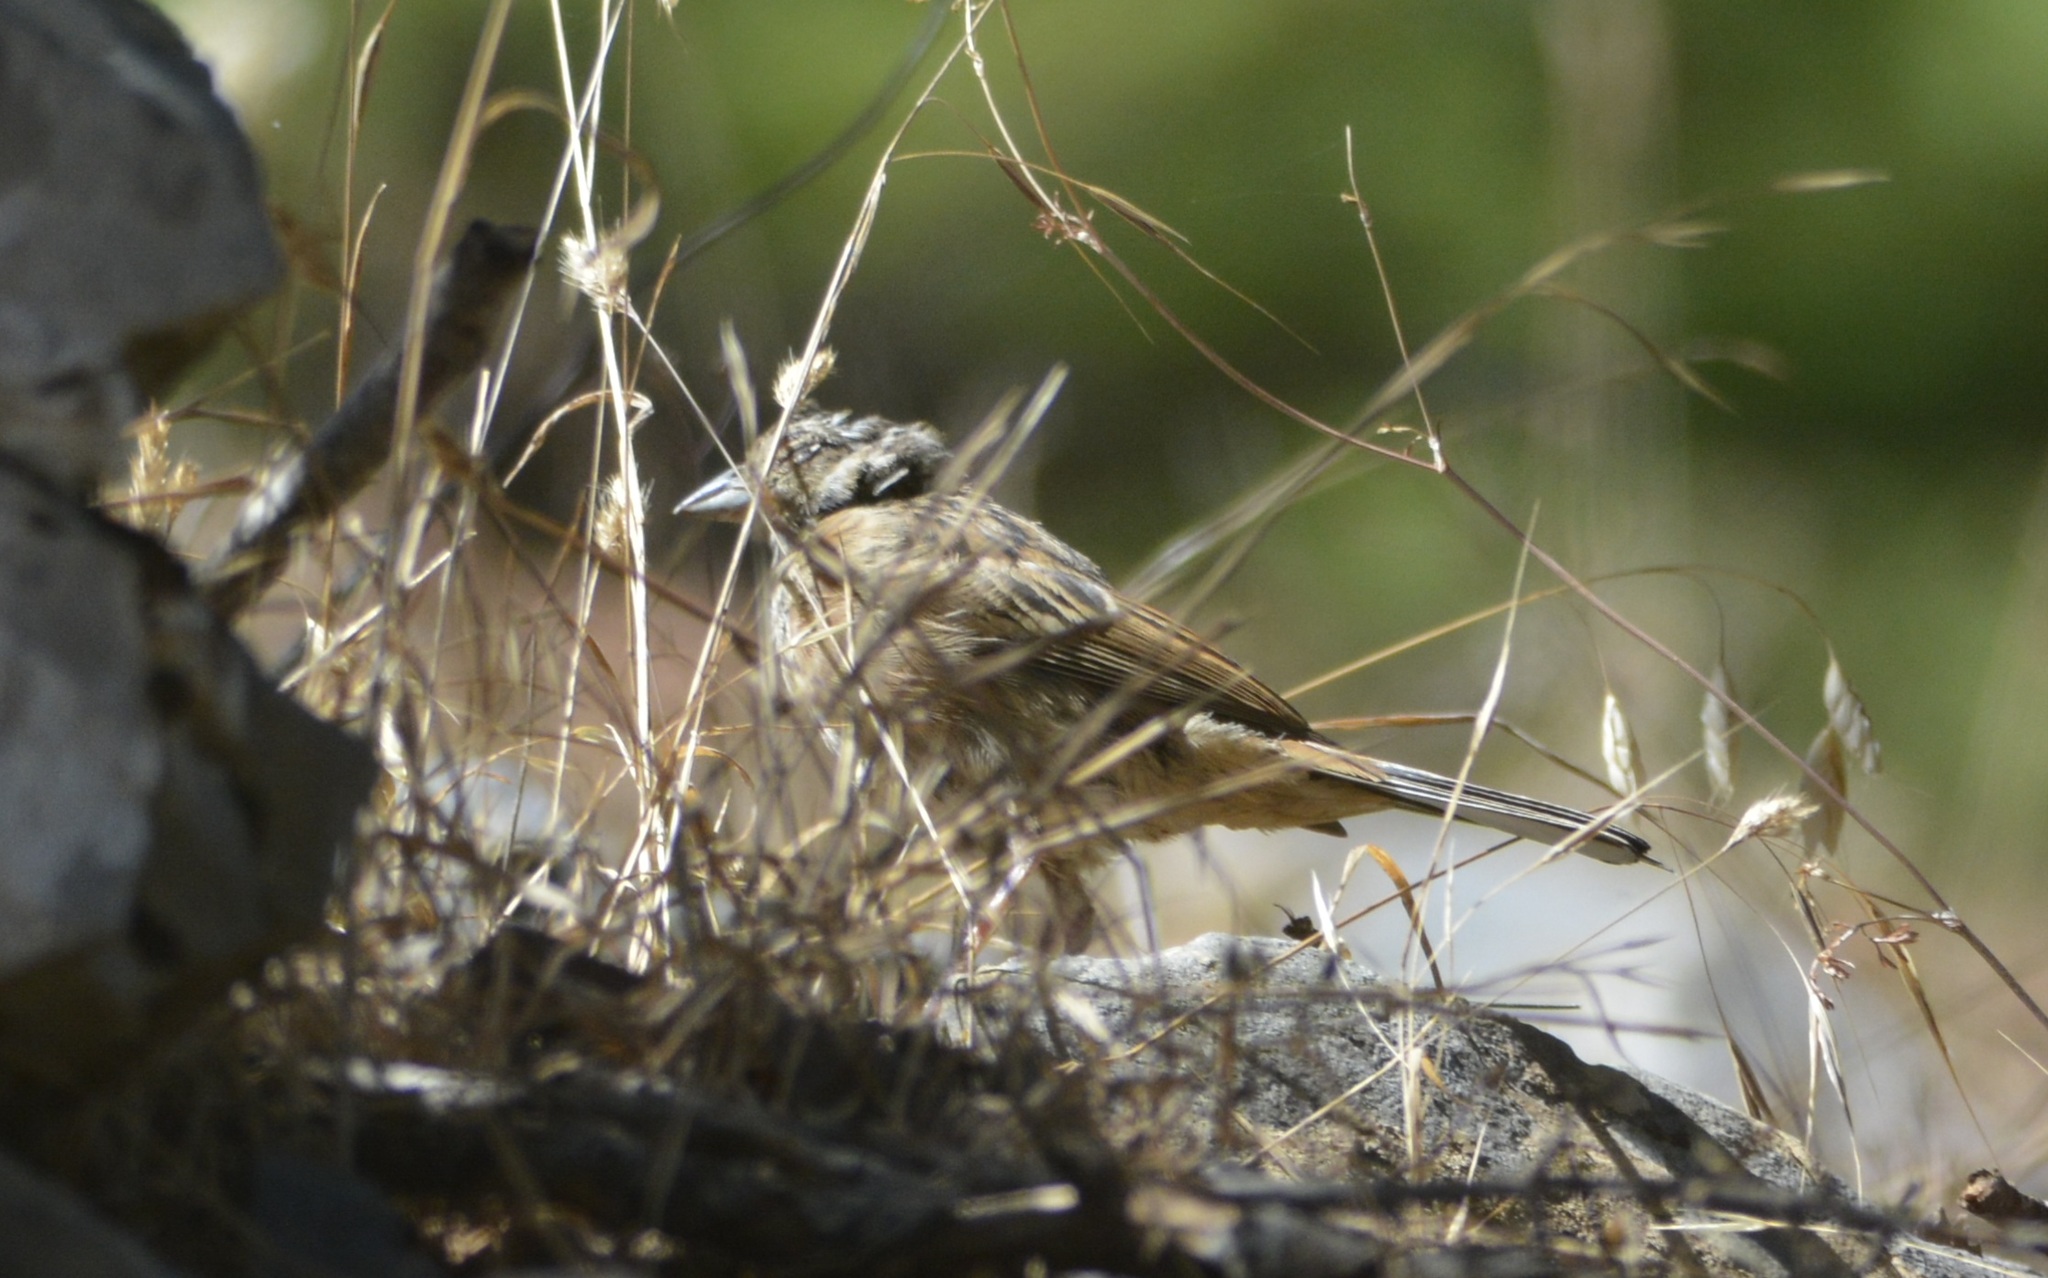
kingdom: Animalia
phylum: Chordata
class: Aves
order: Passeriformes
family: Emberizidae
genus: Emberiza
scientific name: Emberiza cia
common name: Rock bunting
